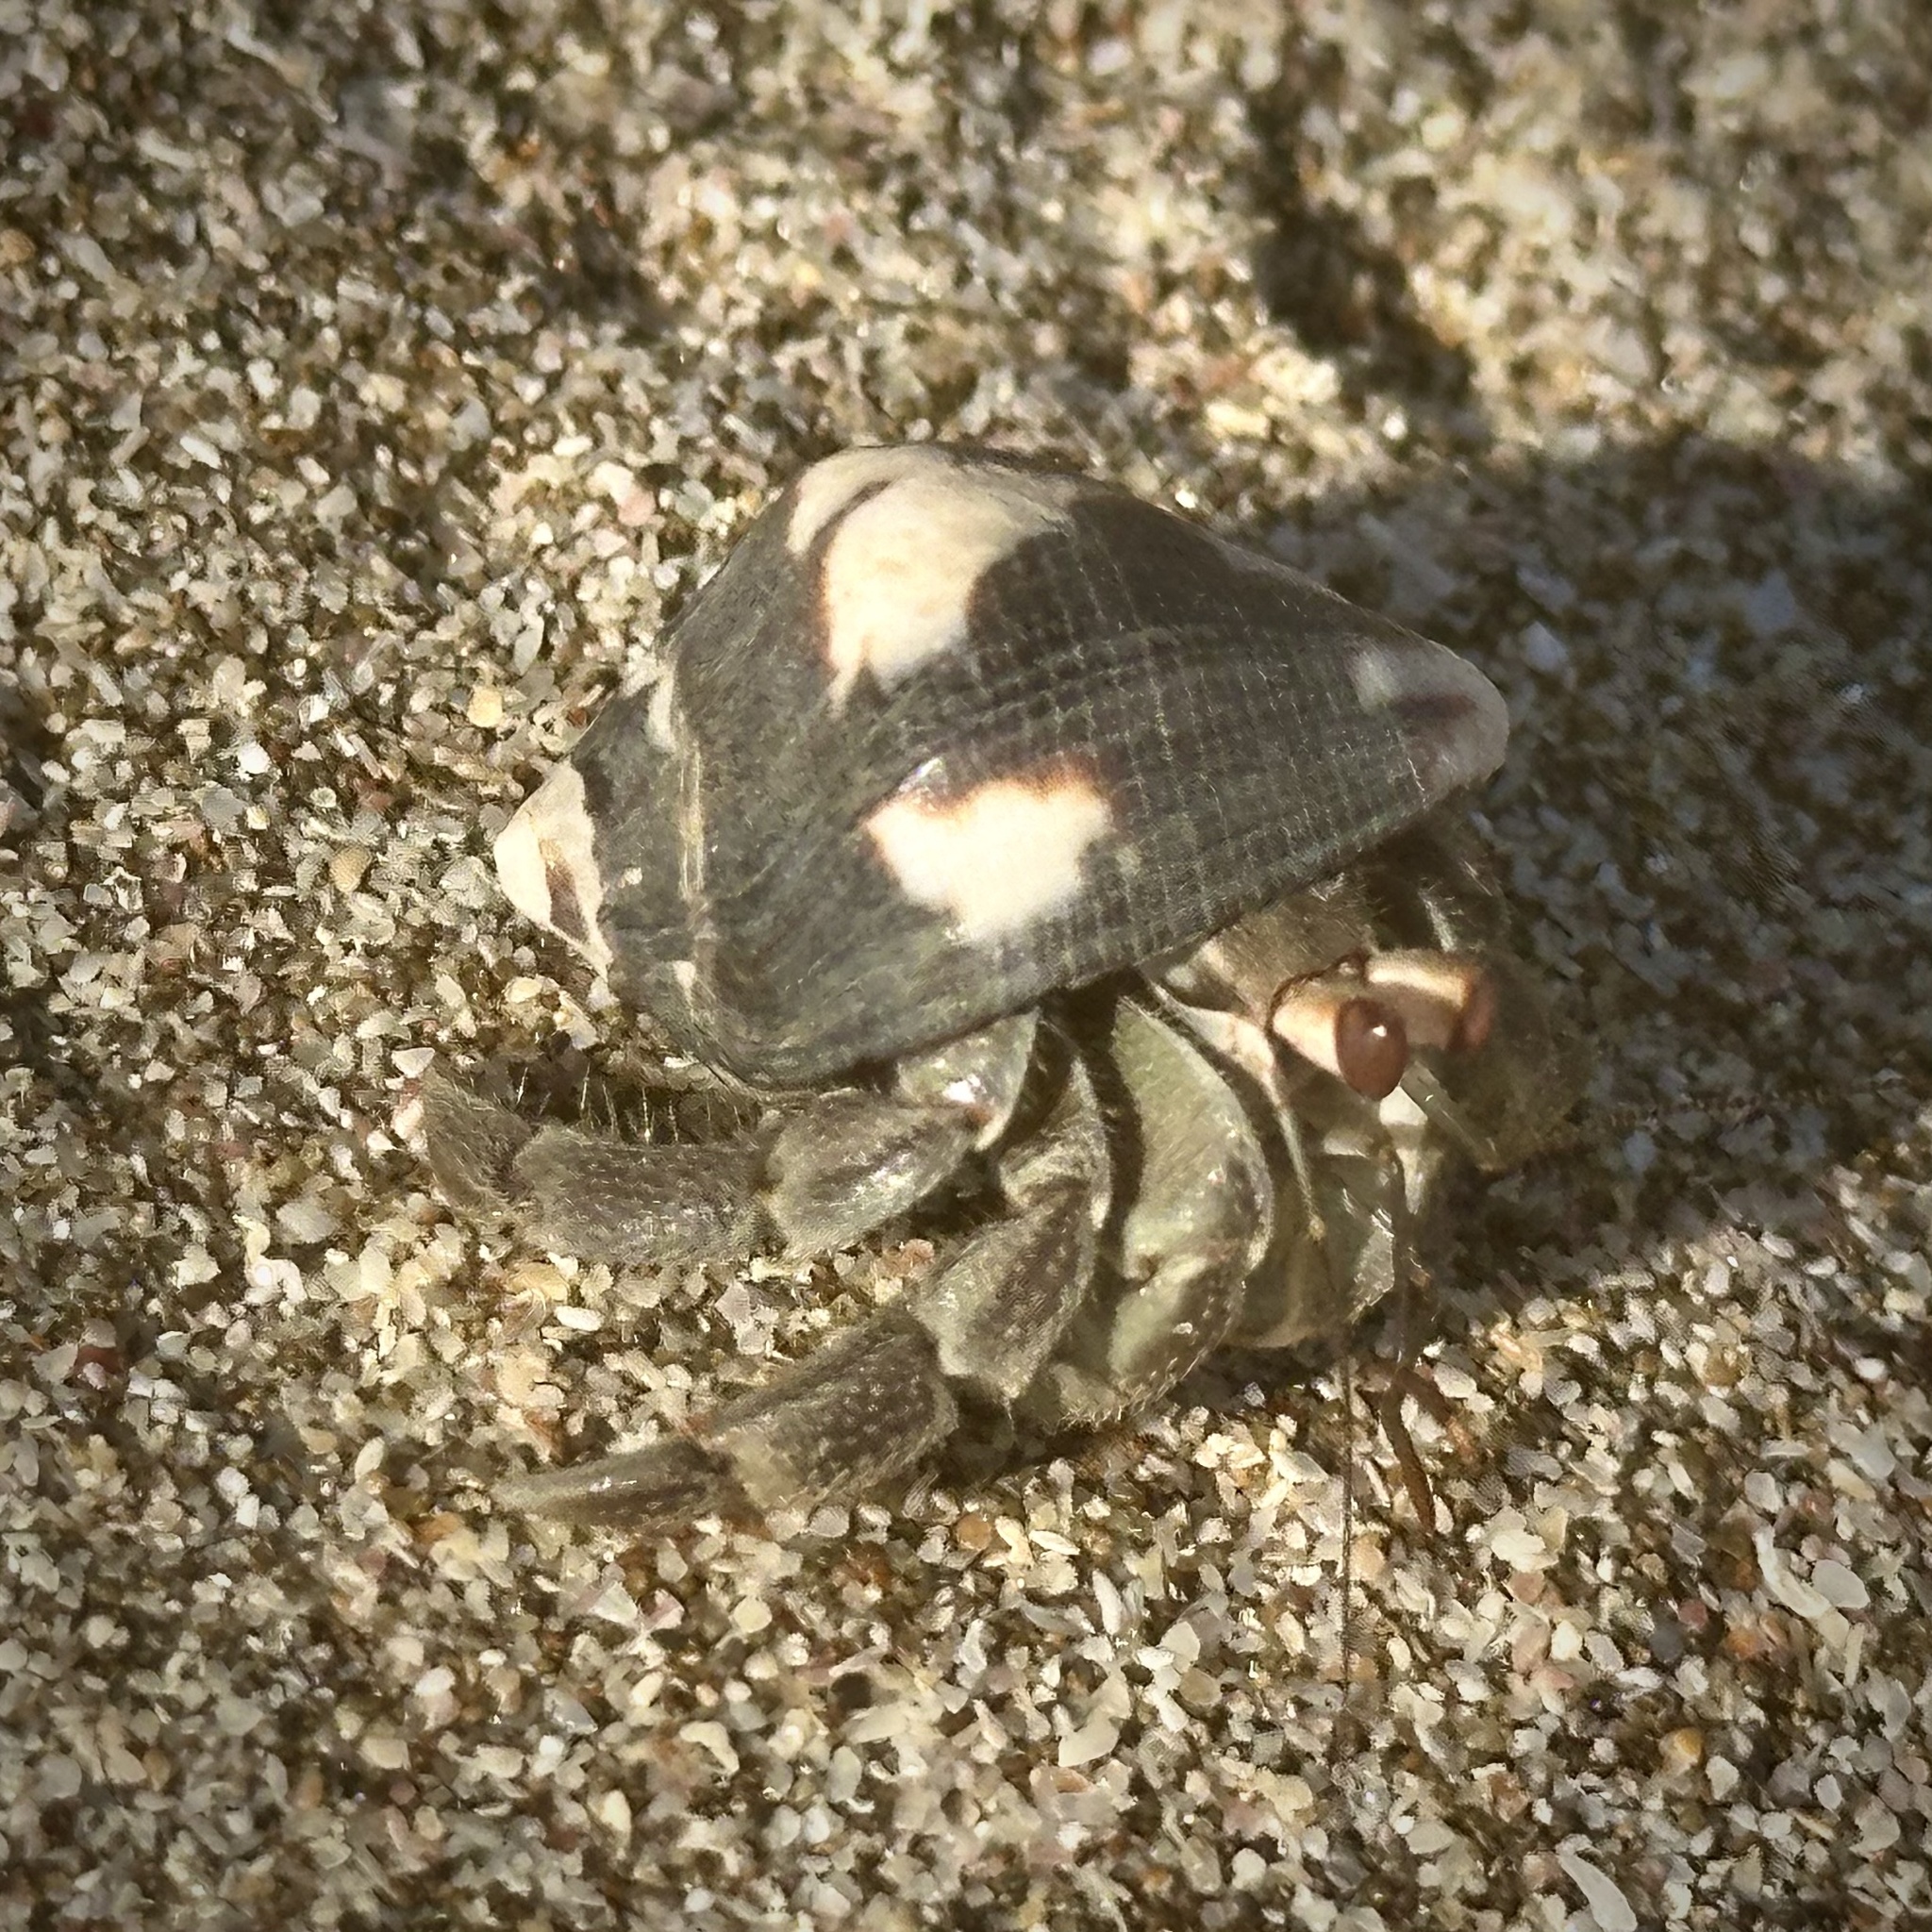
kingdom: Animalia
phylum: Arthropoda
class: Malacostraca
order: Decapoda
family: Coenobitidae
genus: Coenobita
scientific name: Coenobita compressus
